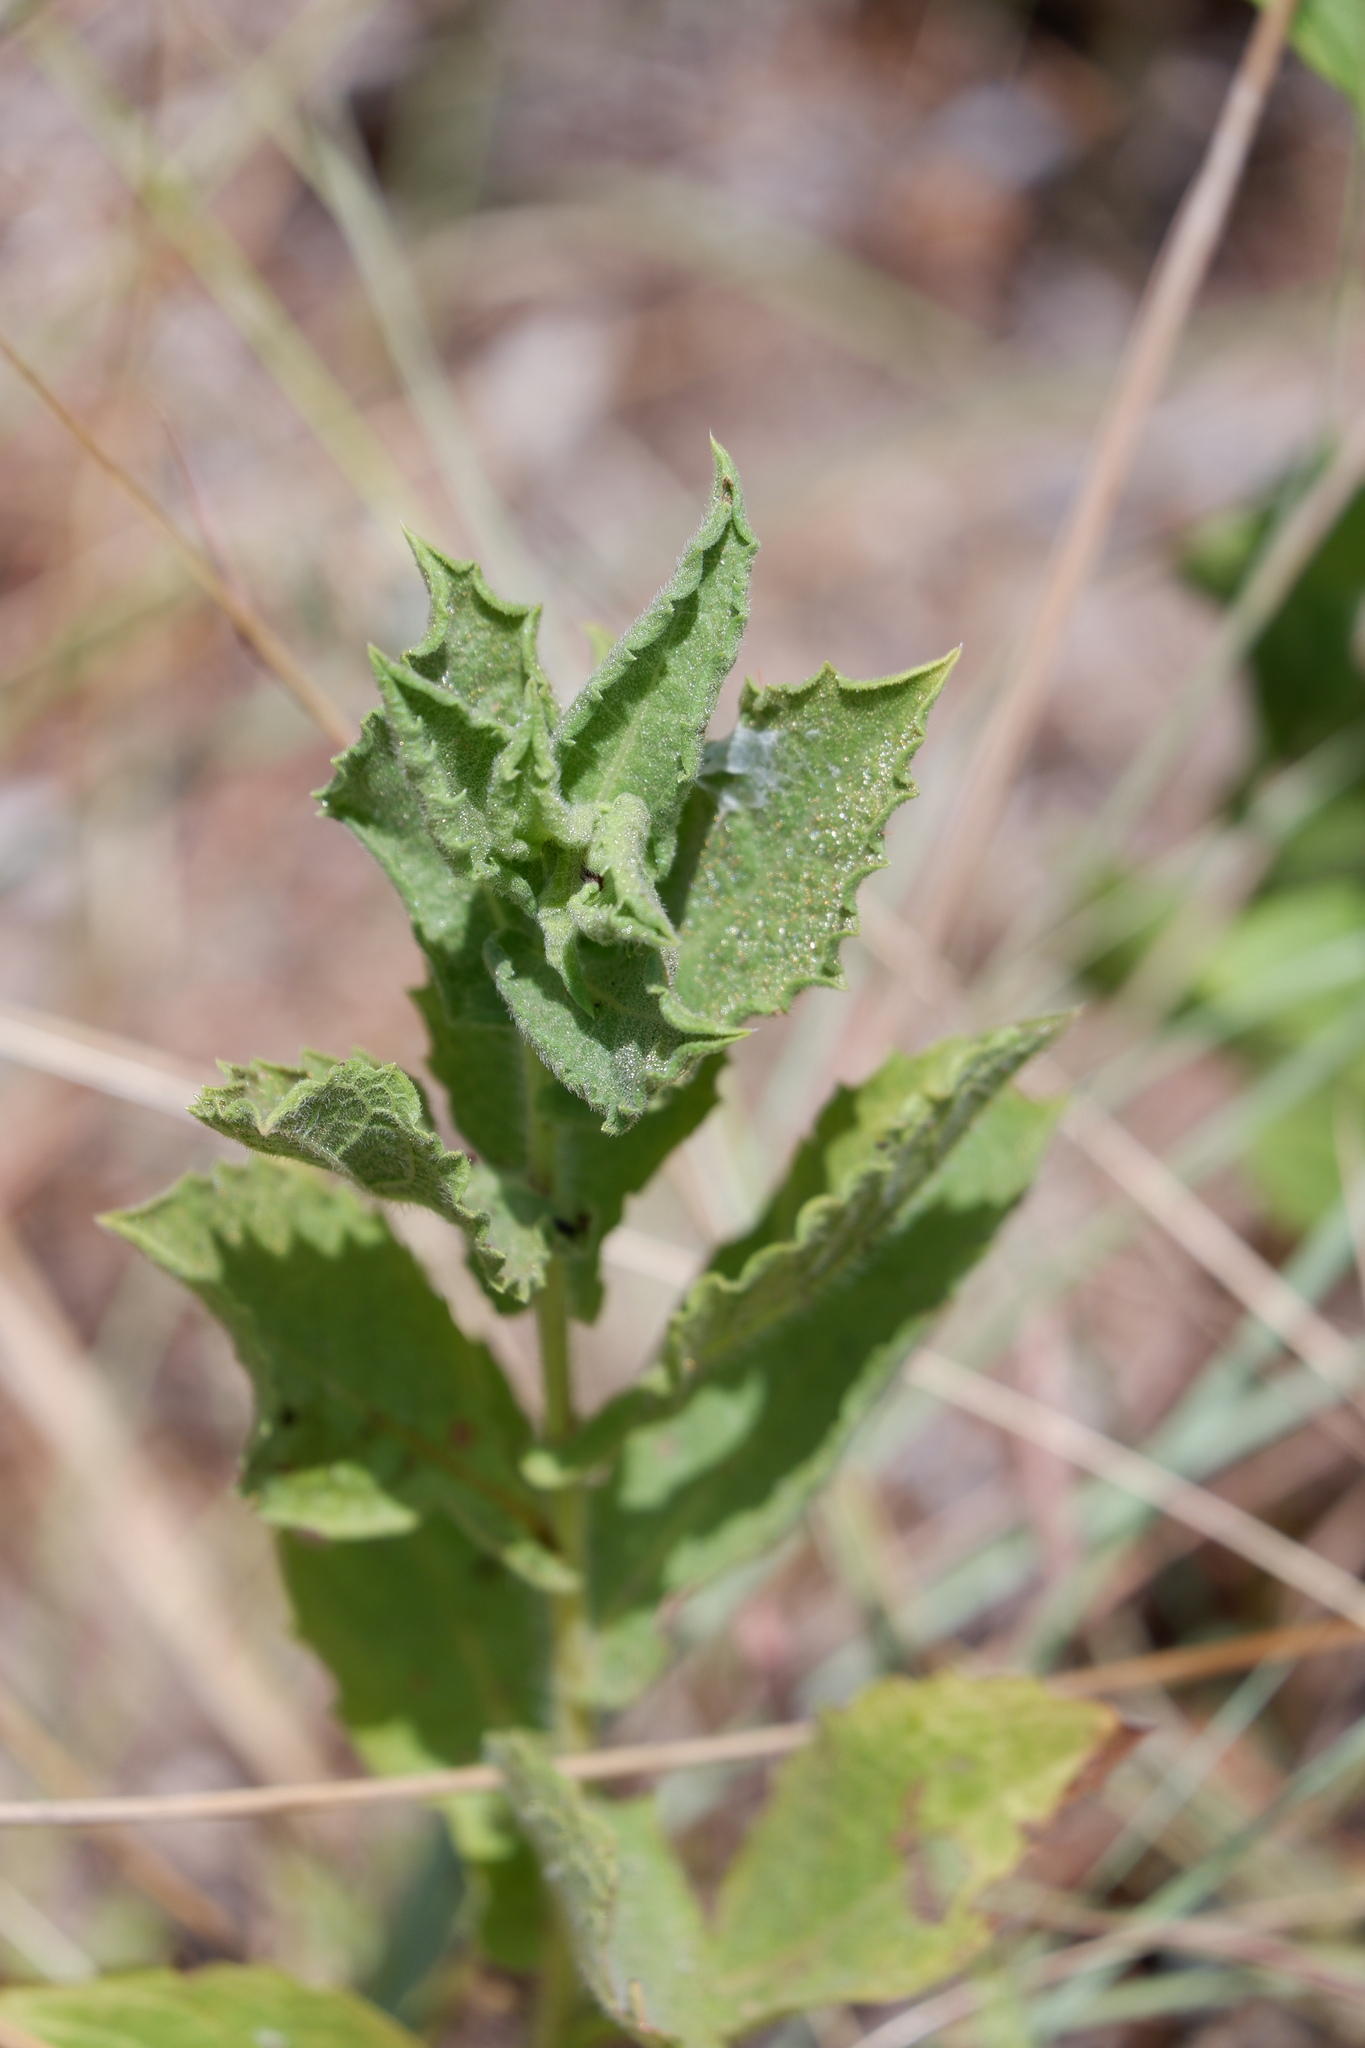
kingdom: Plantae
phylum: Tracheophyta
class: Magnoliopsida
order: Asterales
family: Asteraceae
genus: Heterotheca
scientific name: Heterotheca subaxillaris
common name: Camphorweed
